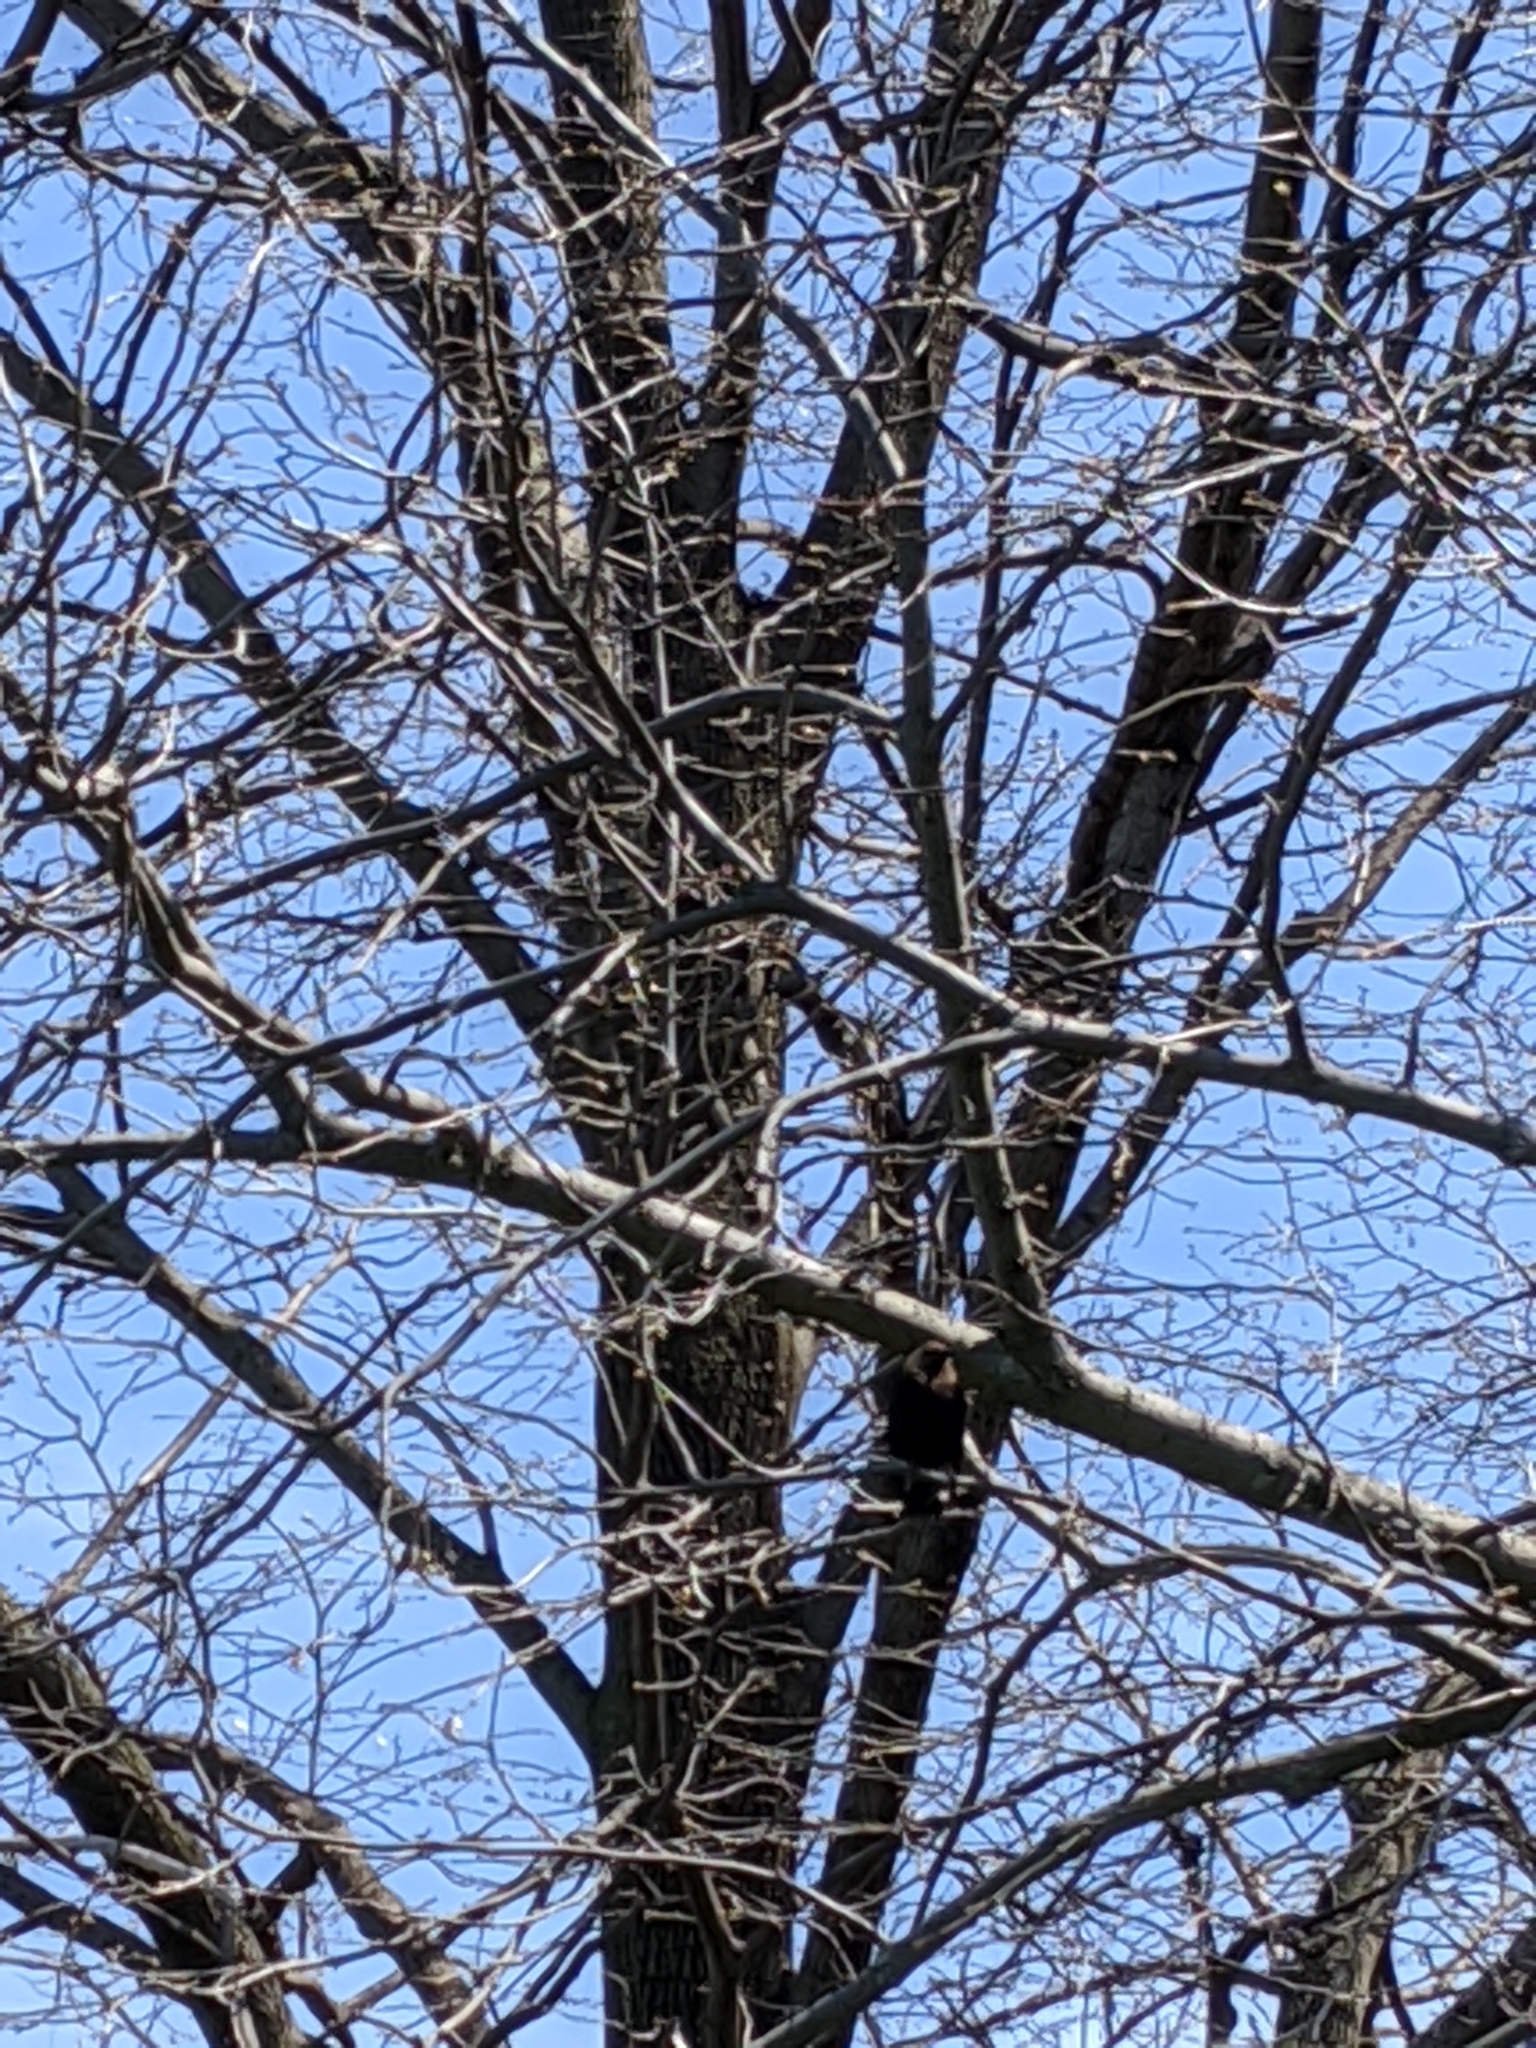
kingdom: Animalia
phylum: Chordata
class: Aves
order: Passeriformes
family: Icteridae
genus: Molothrus
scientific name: Molothrus ater
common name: Brown-headed cowbird
